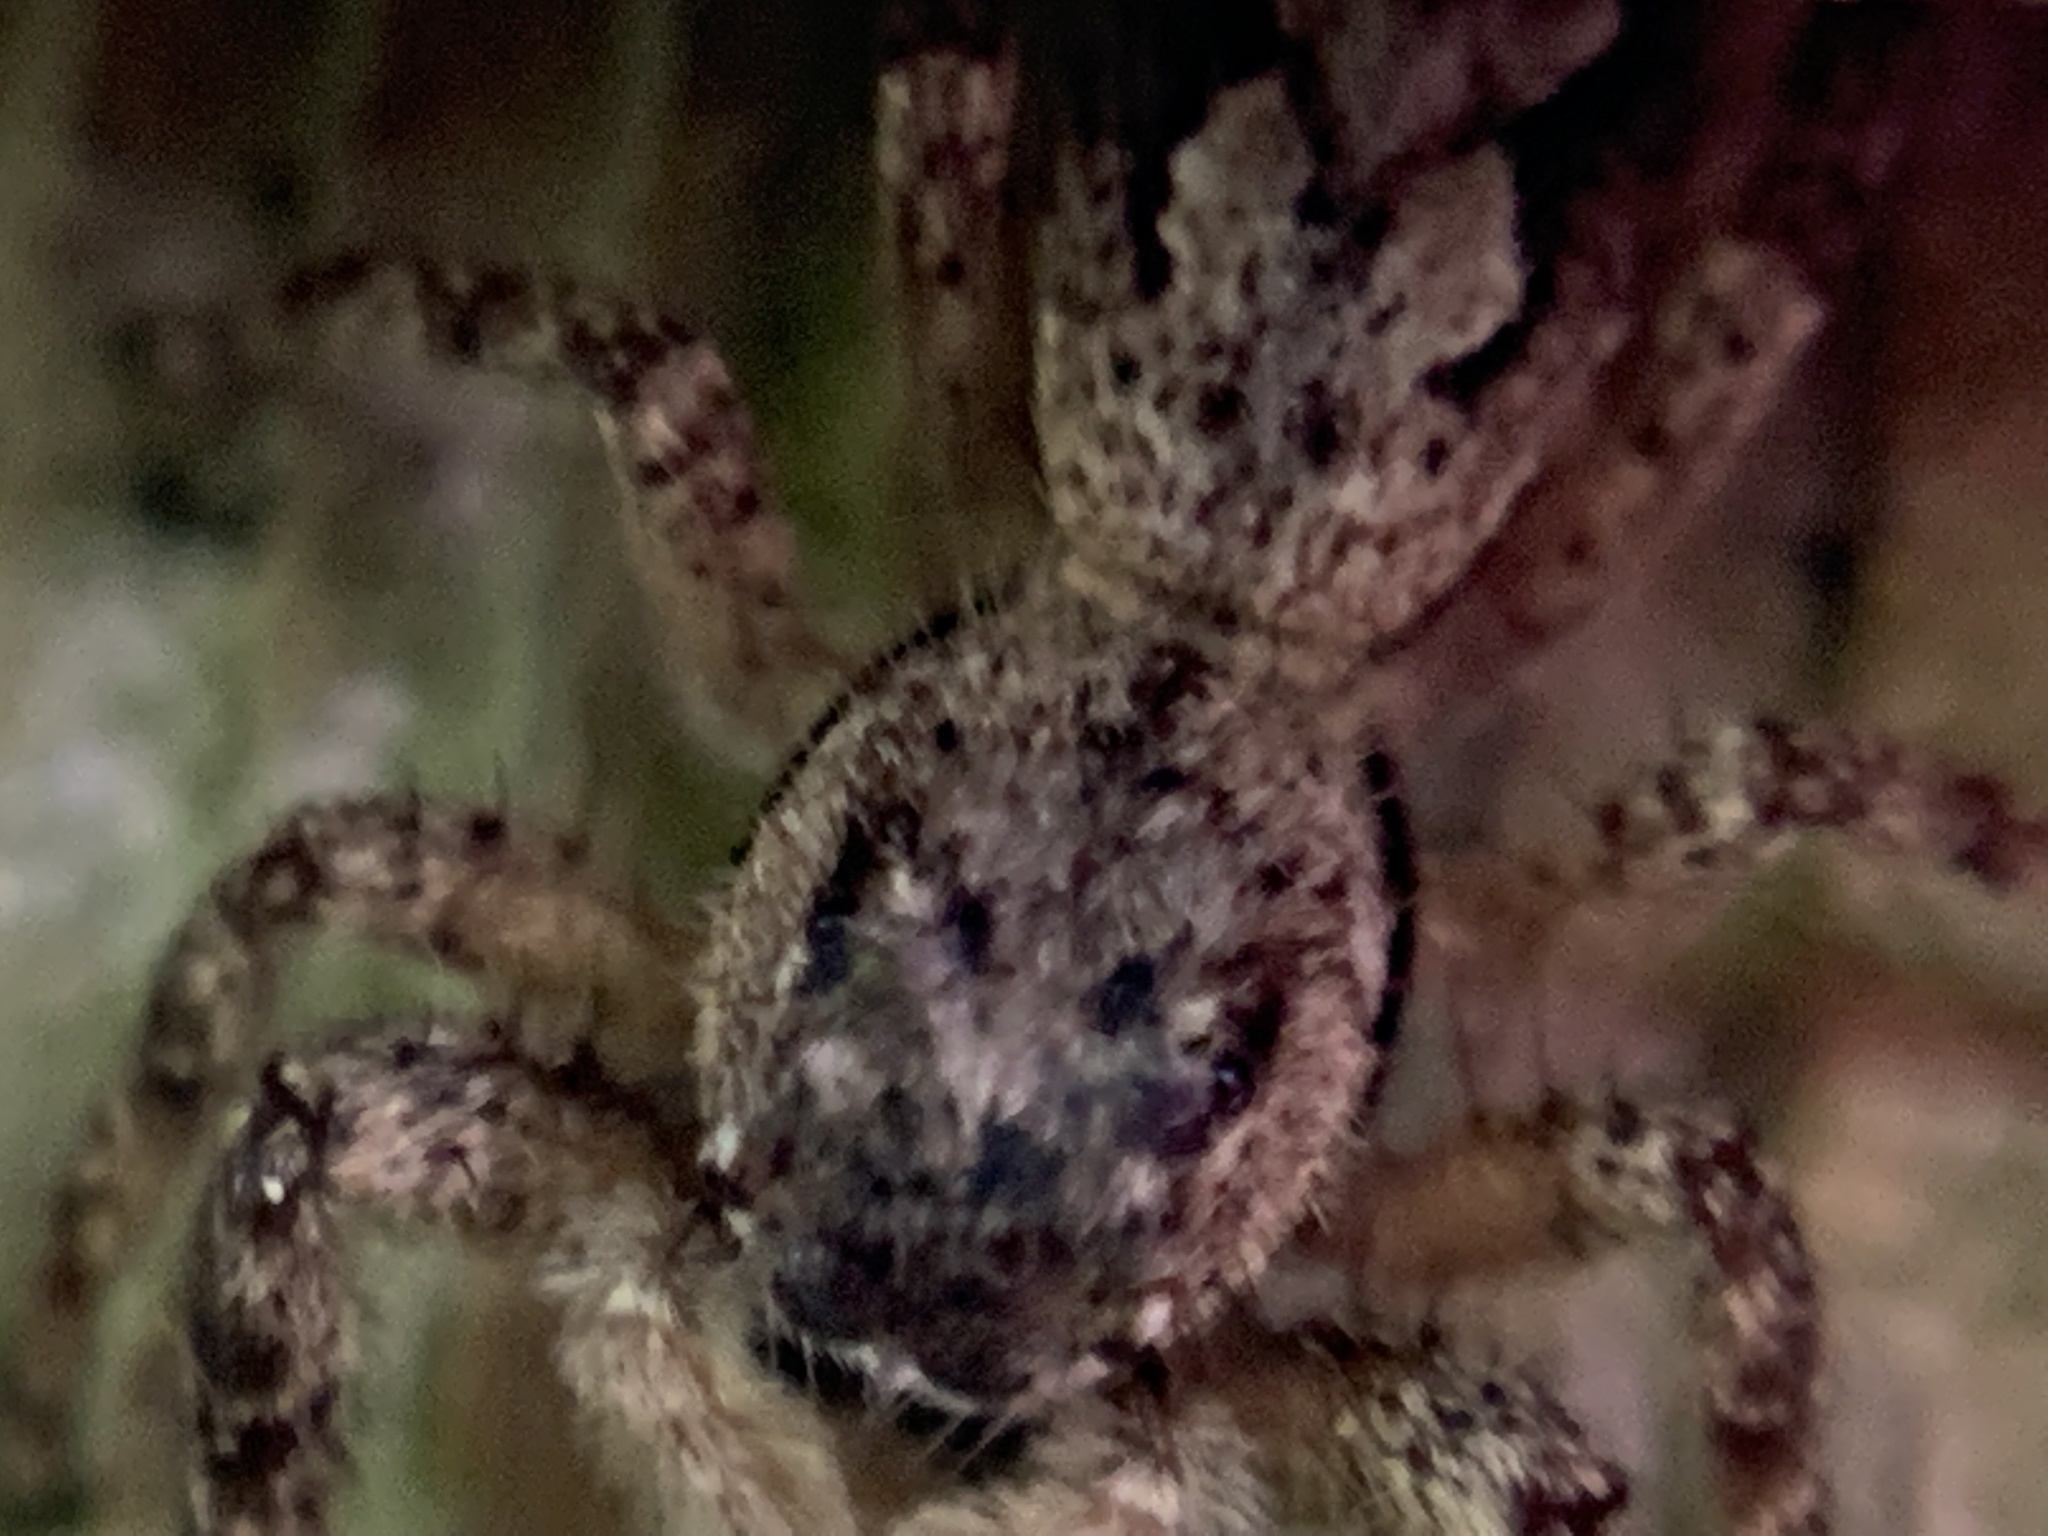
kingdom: Animalia
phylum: Arthropoda
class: Arachnida
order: Araneae
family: Salticidae
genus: Platycryptus
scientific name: Platycryptus undatus
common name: Tan jumping spider
